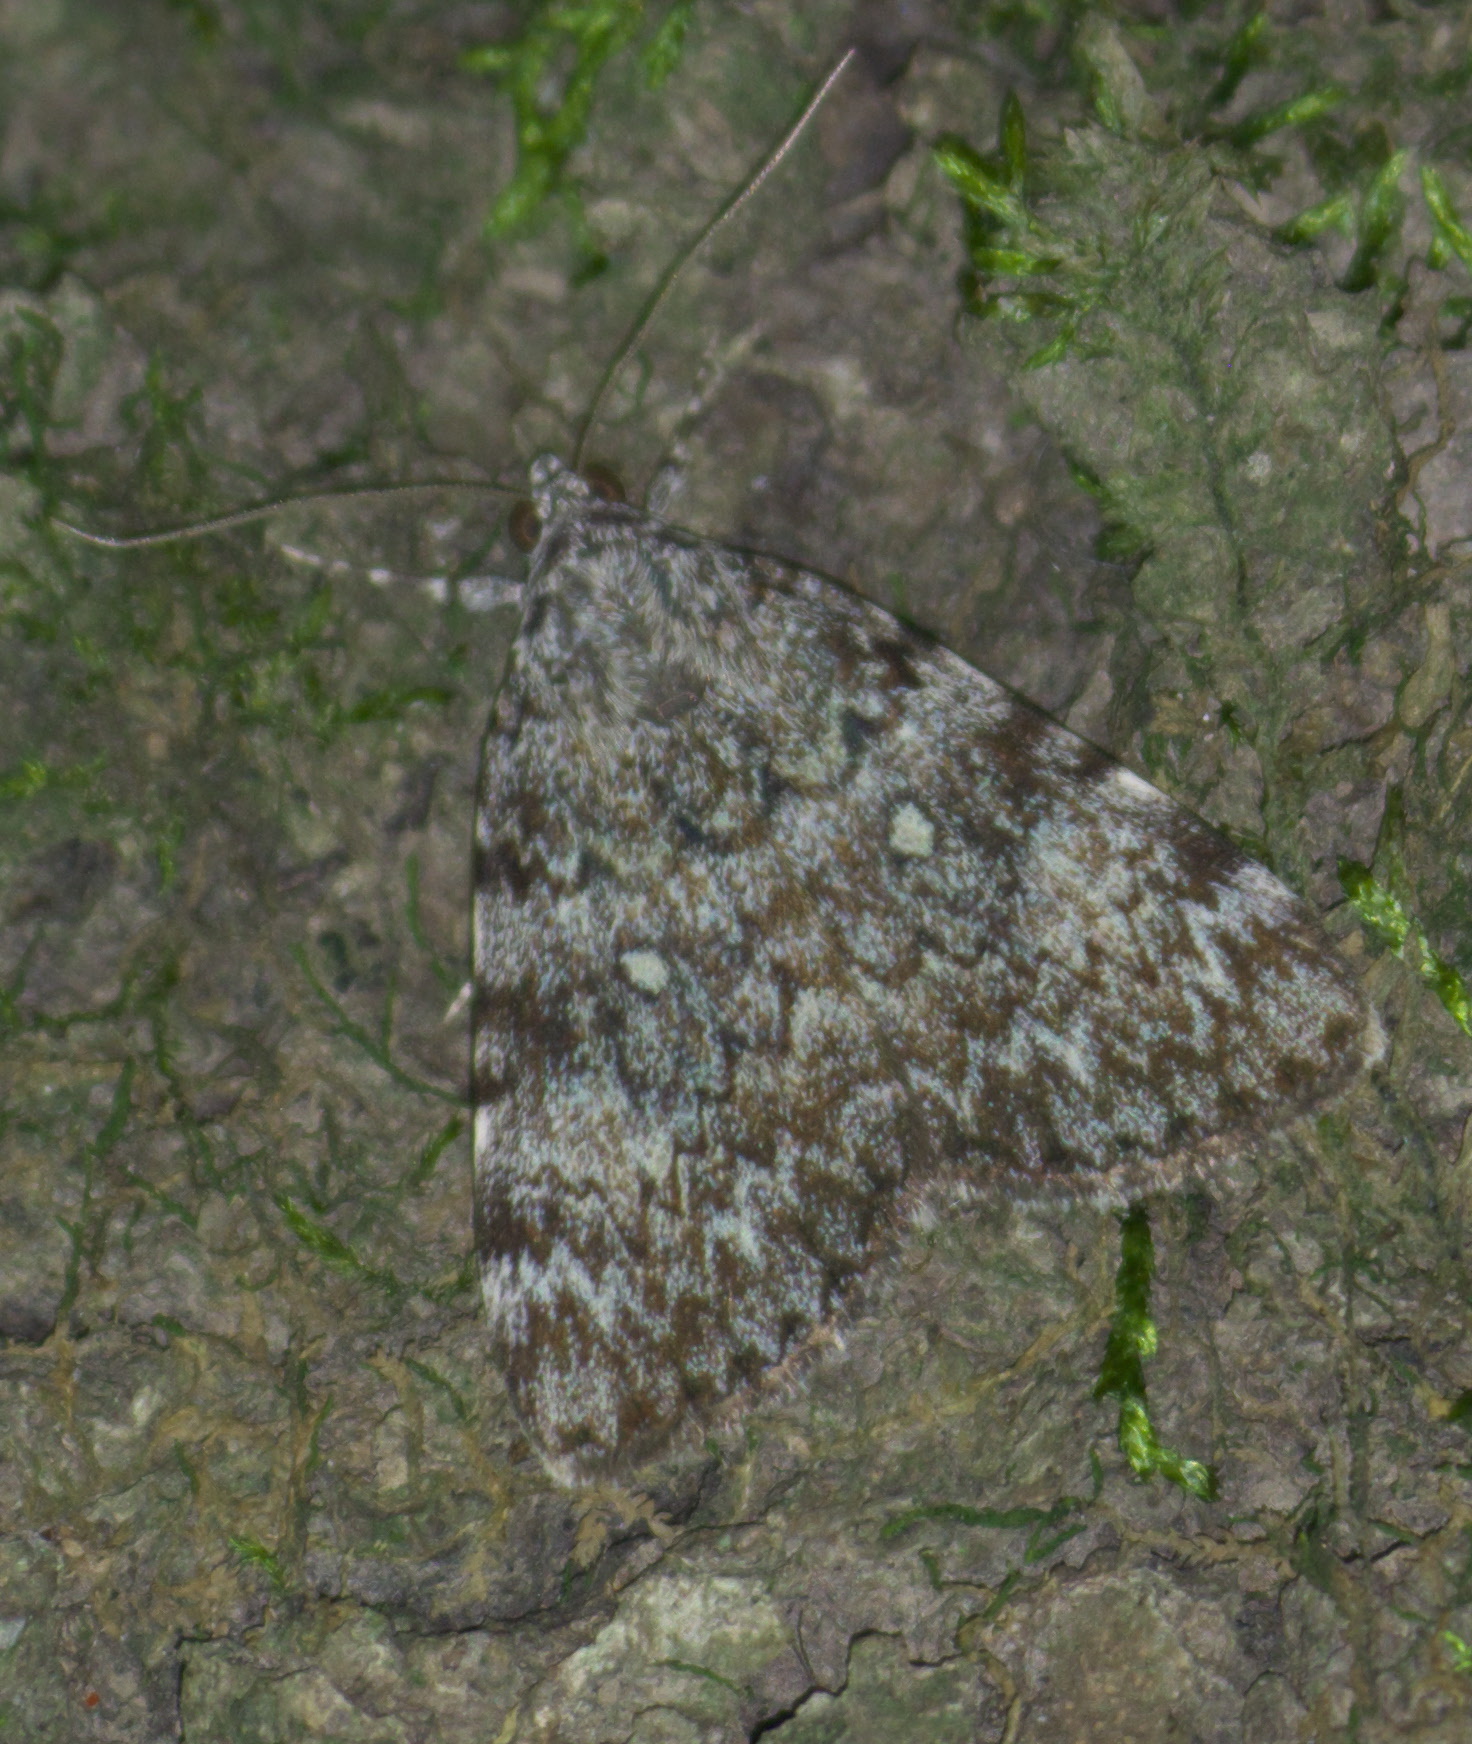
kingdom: Animalia
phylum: Arthropoda
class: Insecta
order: Lepidoptera
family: Erebidae
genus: Catocala
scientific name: Catocala lineella
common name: Little lined underwing
